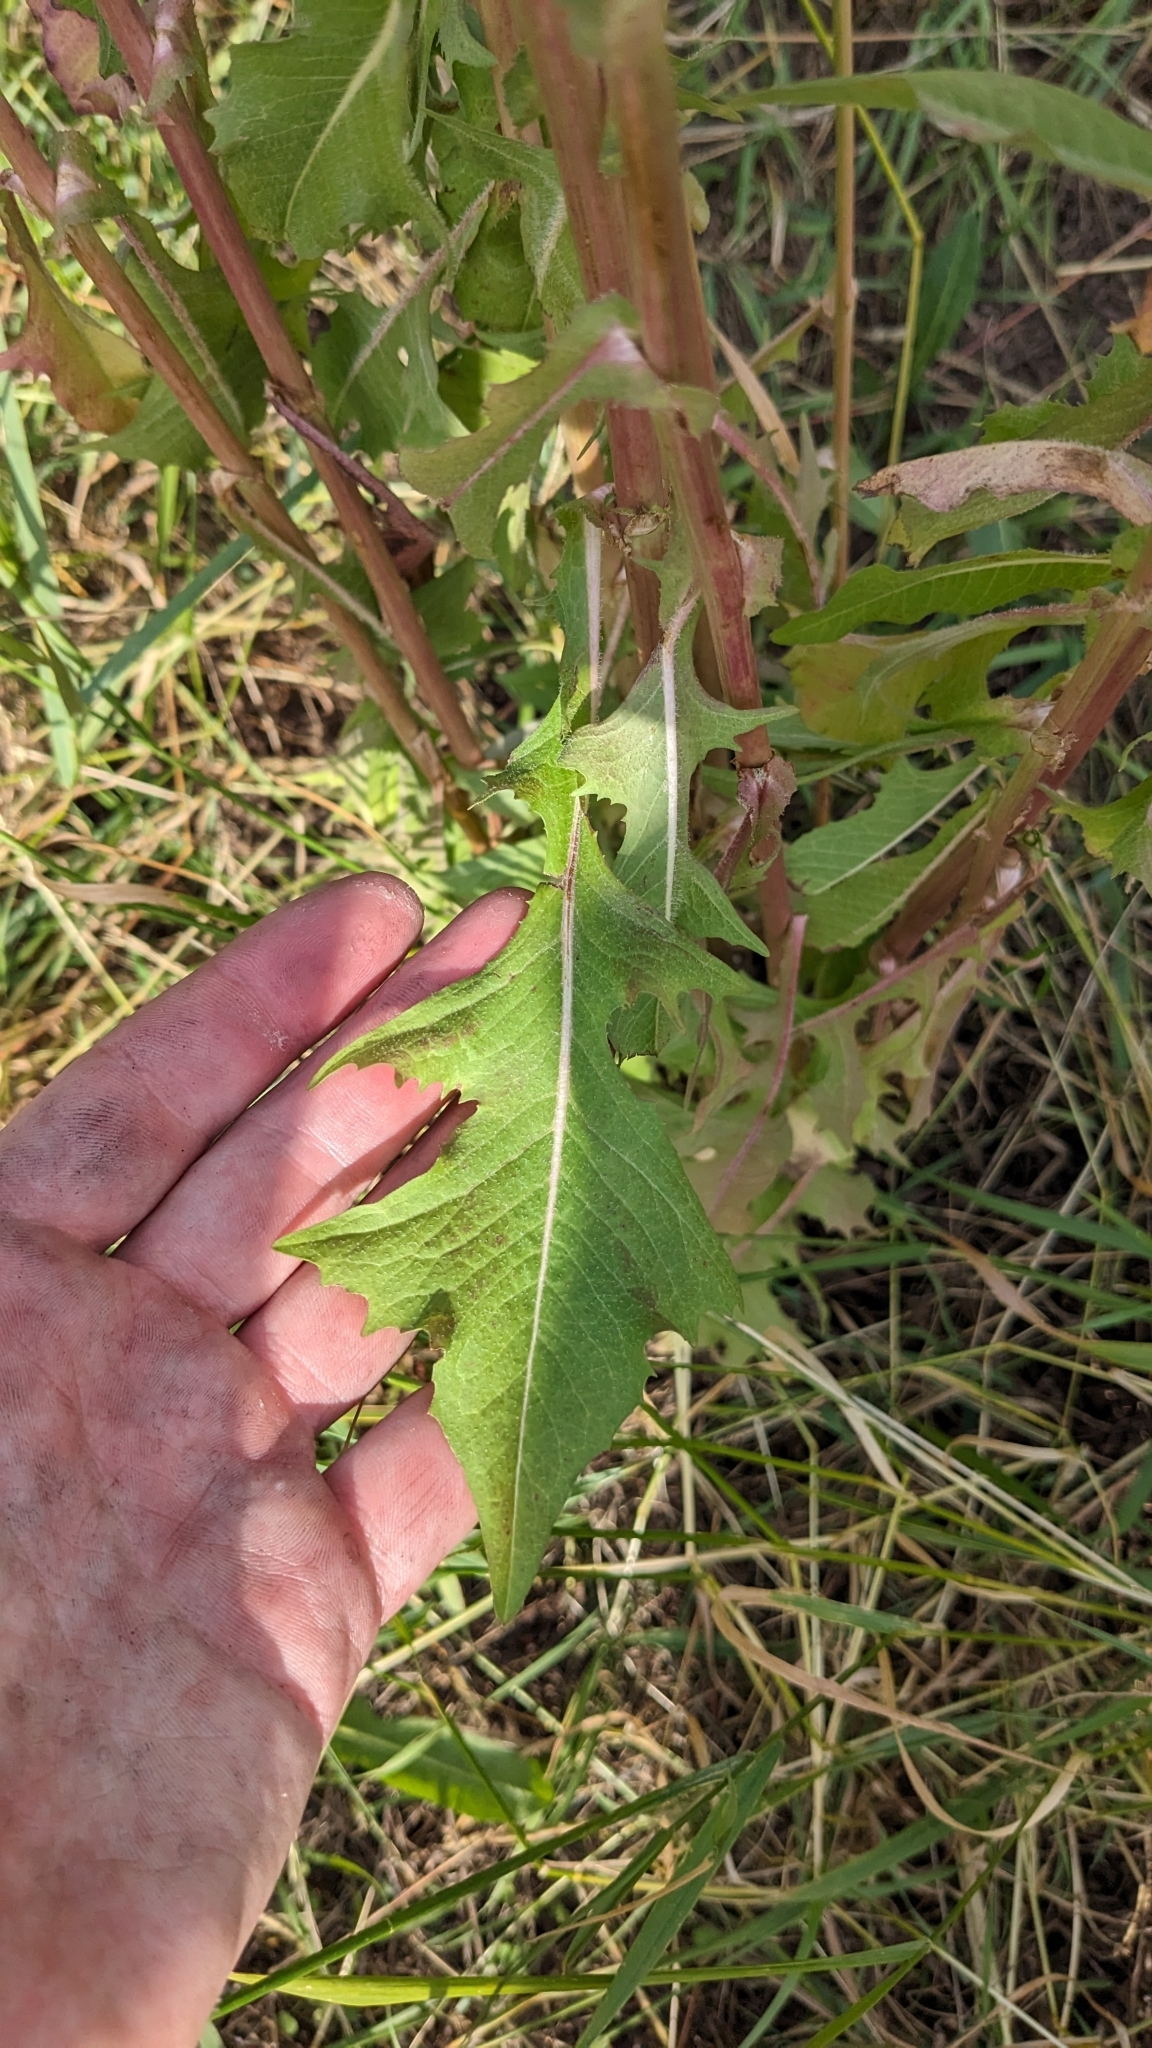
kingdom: Plantae
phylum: Tracheophyta
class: Magnoliopsida
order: Asterales
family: Asteraceae
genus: Cichorium
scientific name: Cichorium intybus
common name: Chicory
